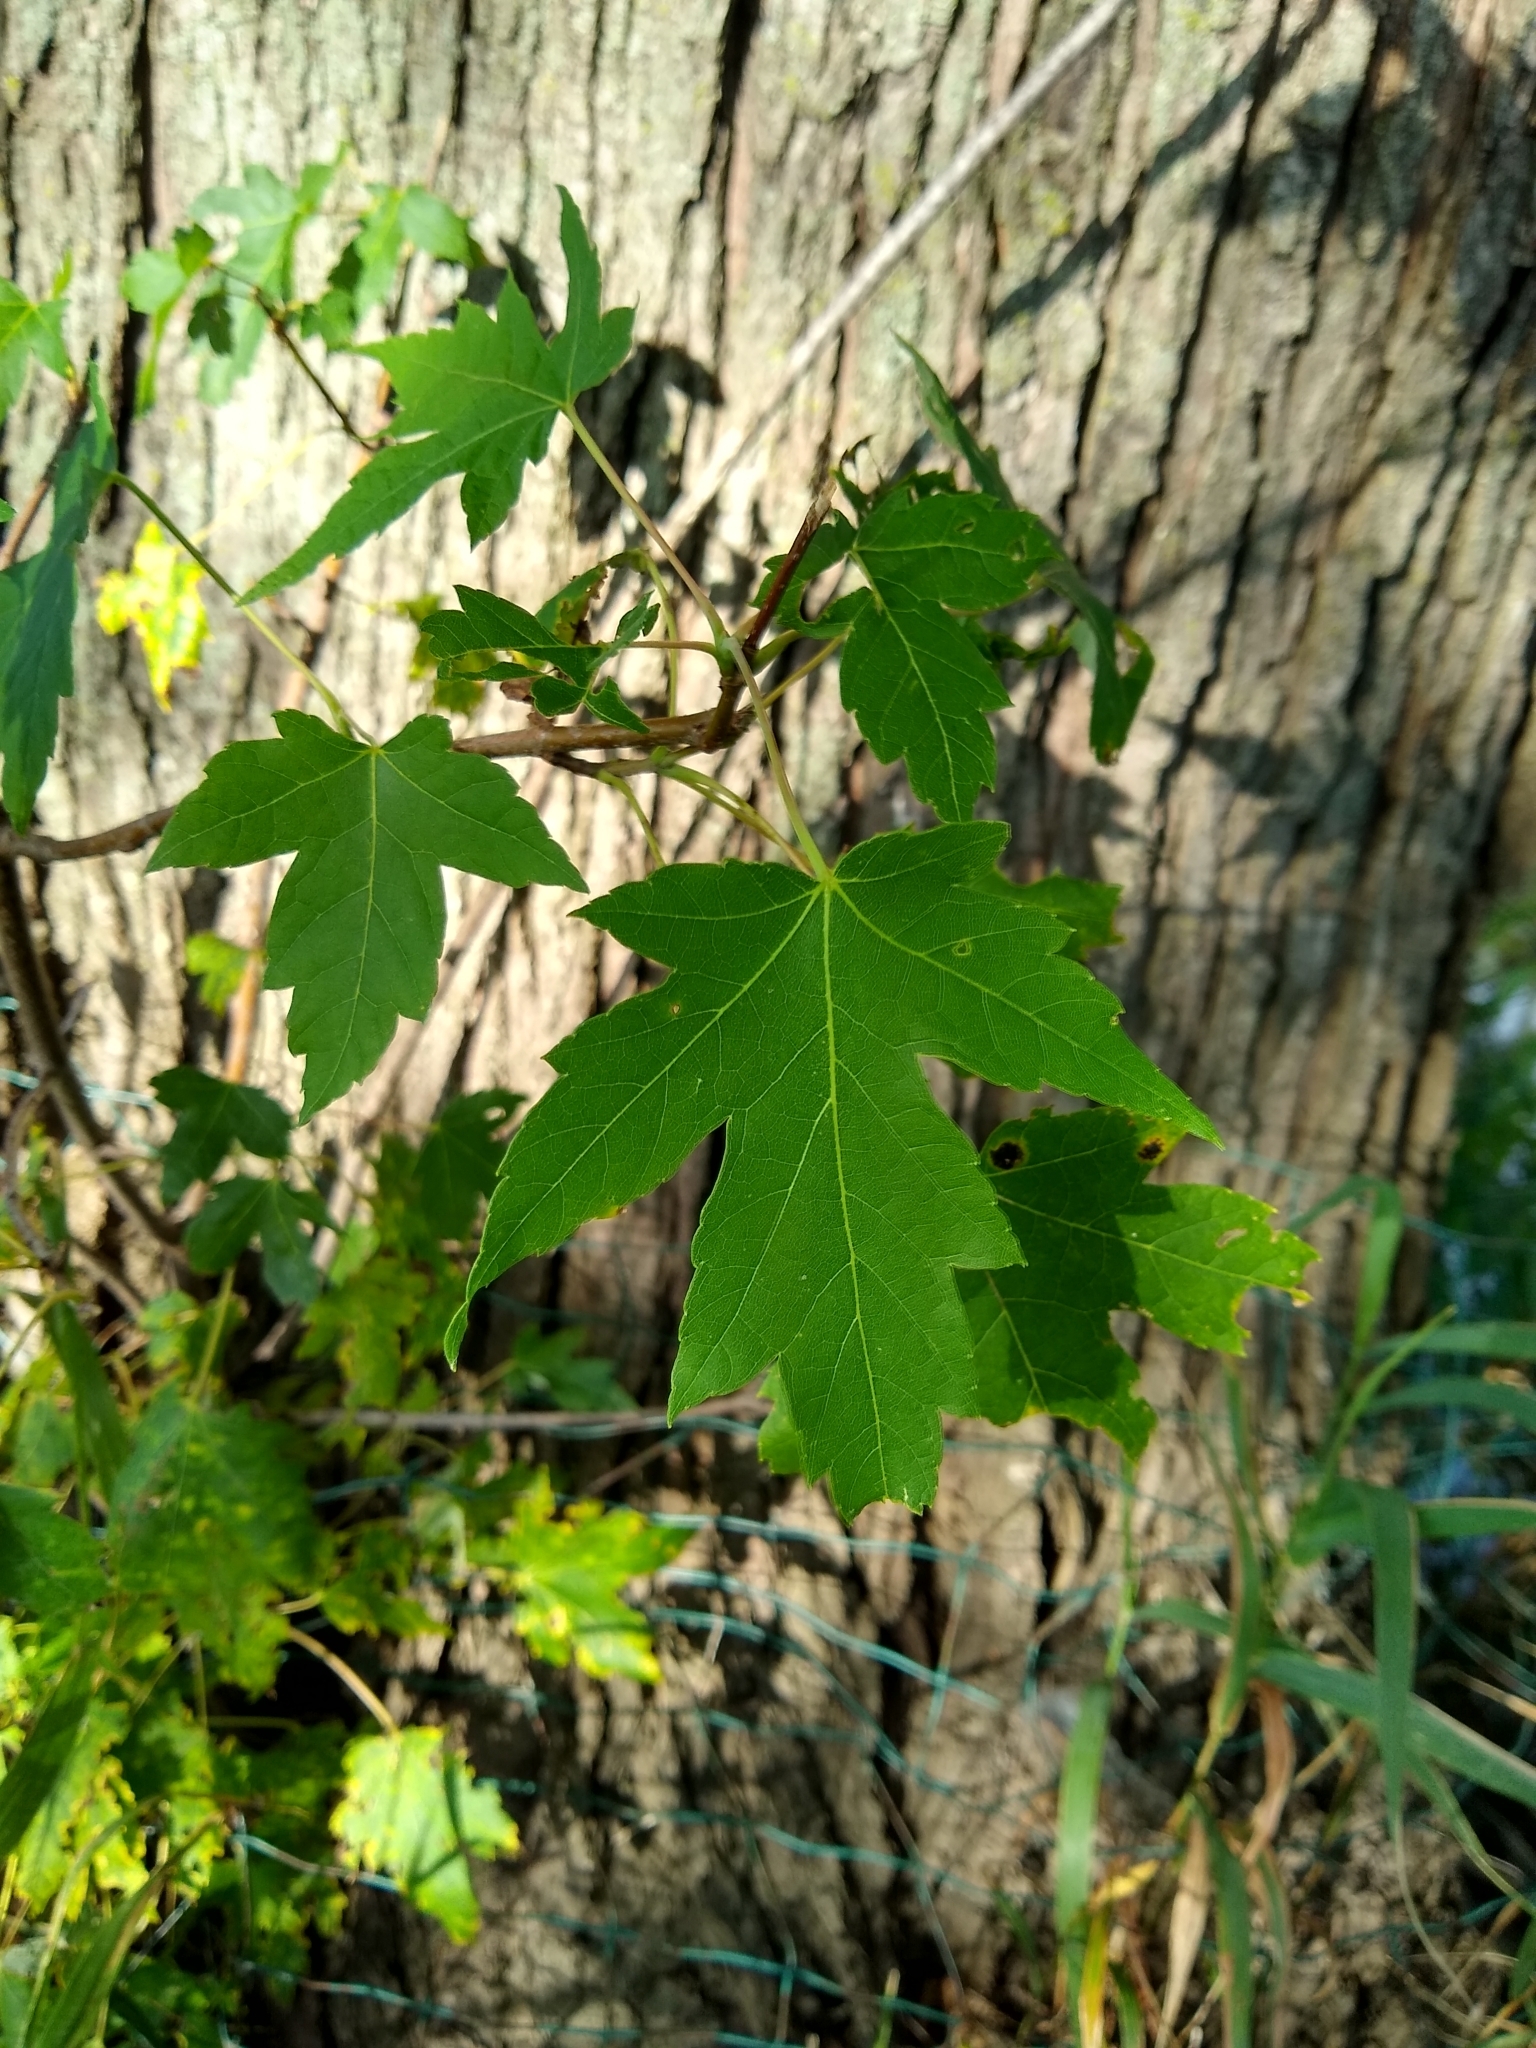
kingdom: Plantae
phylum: Tracheophyta
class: Magnoliopsida
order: Sapindales
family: Sapindaceae
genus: Acer
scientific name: Acer saccharinum
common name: Silver maple
